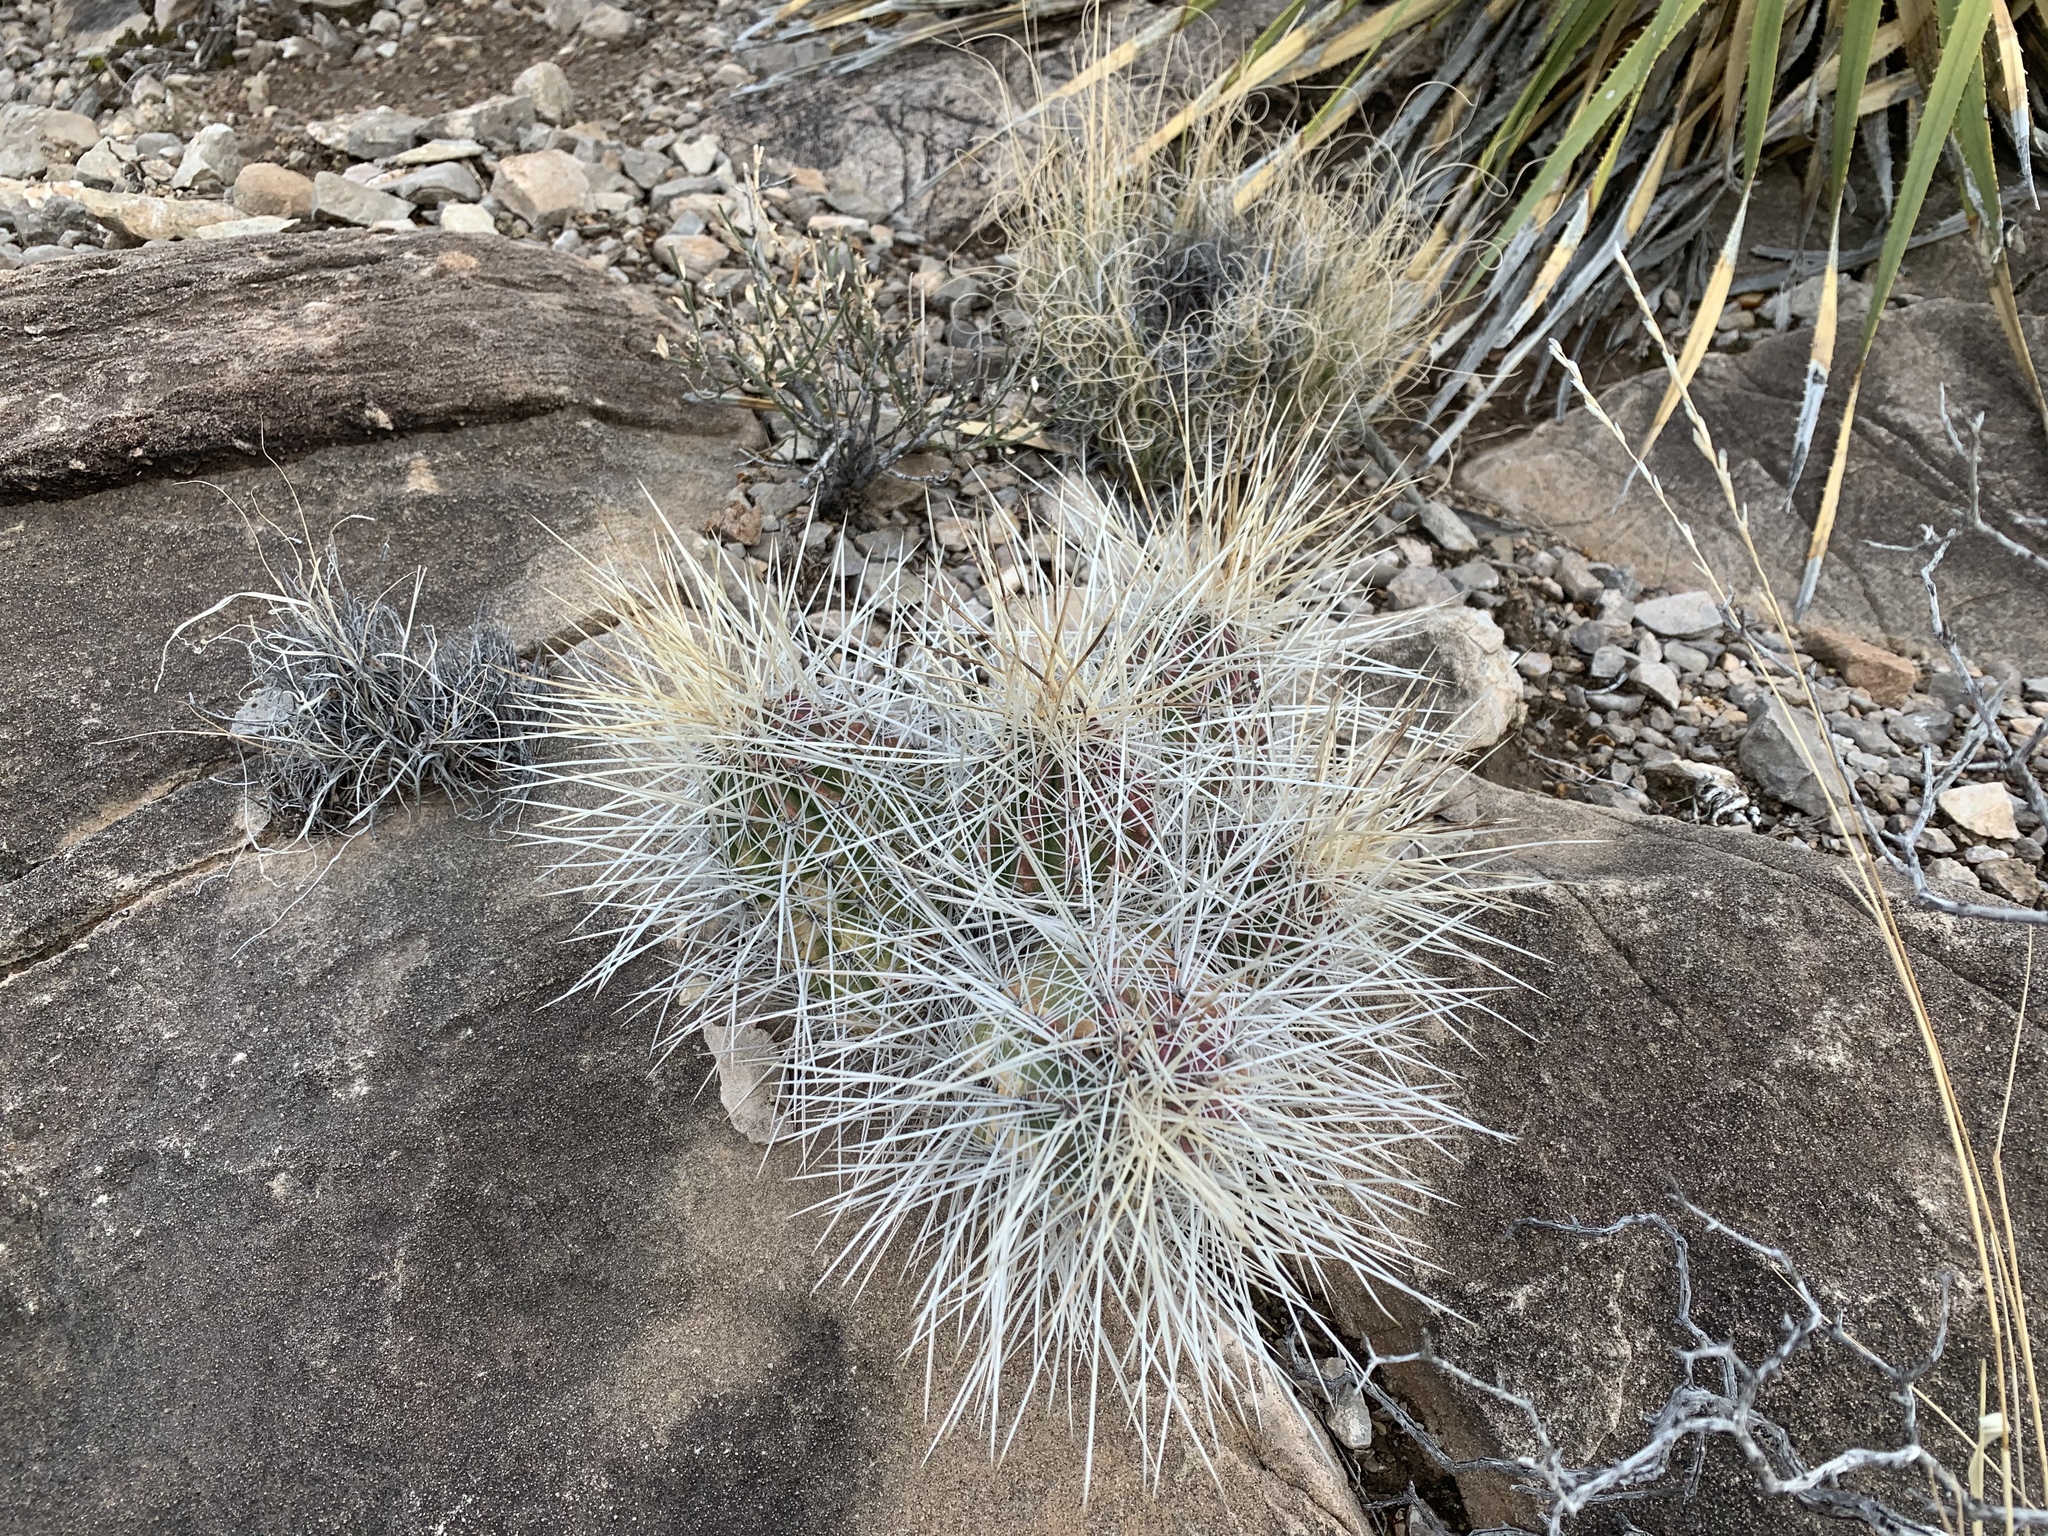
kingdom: Plantae
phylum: Tracheophyta
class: Magnoliopsida
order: Caryophyllales
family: Cactaceae
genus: Echinocereus
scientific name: Echinocereus stramineus
